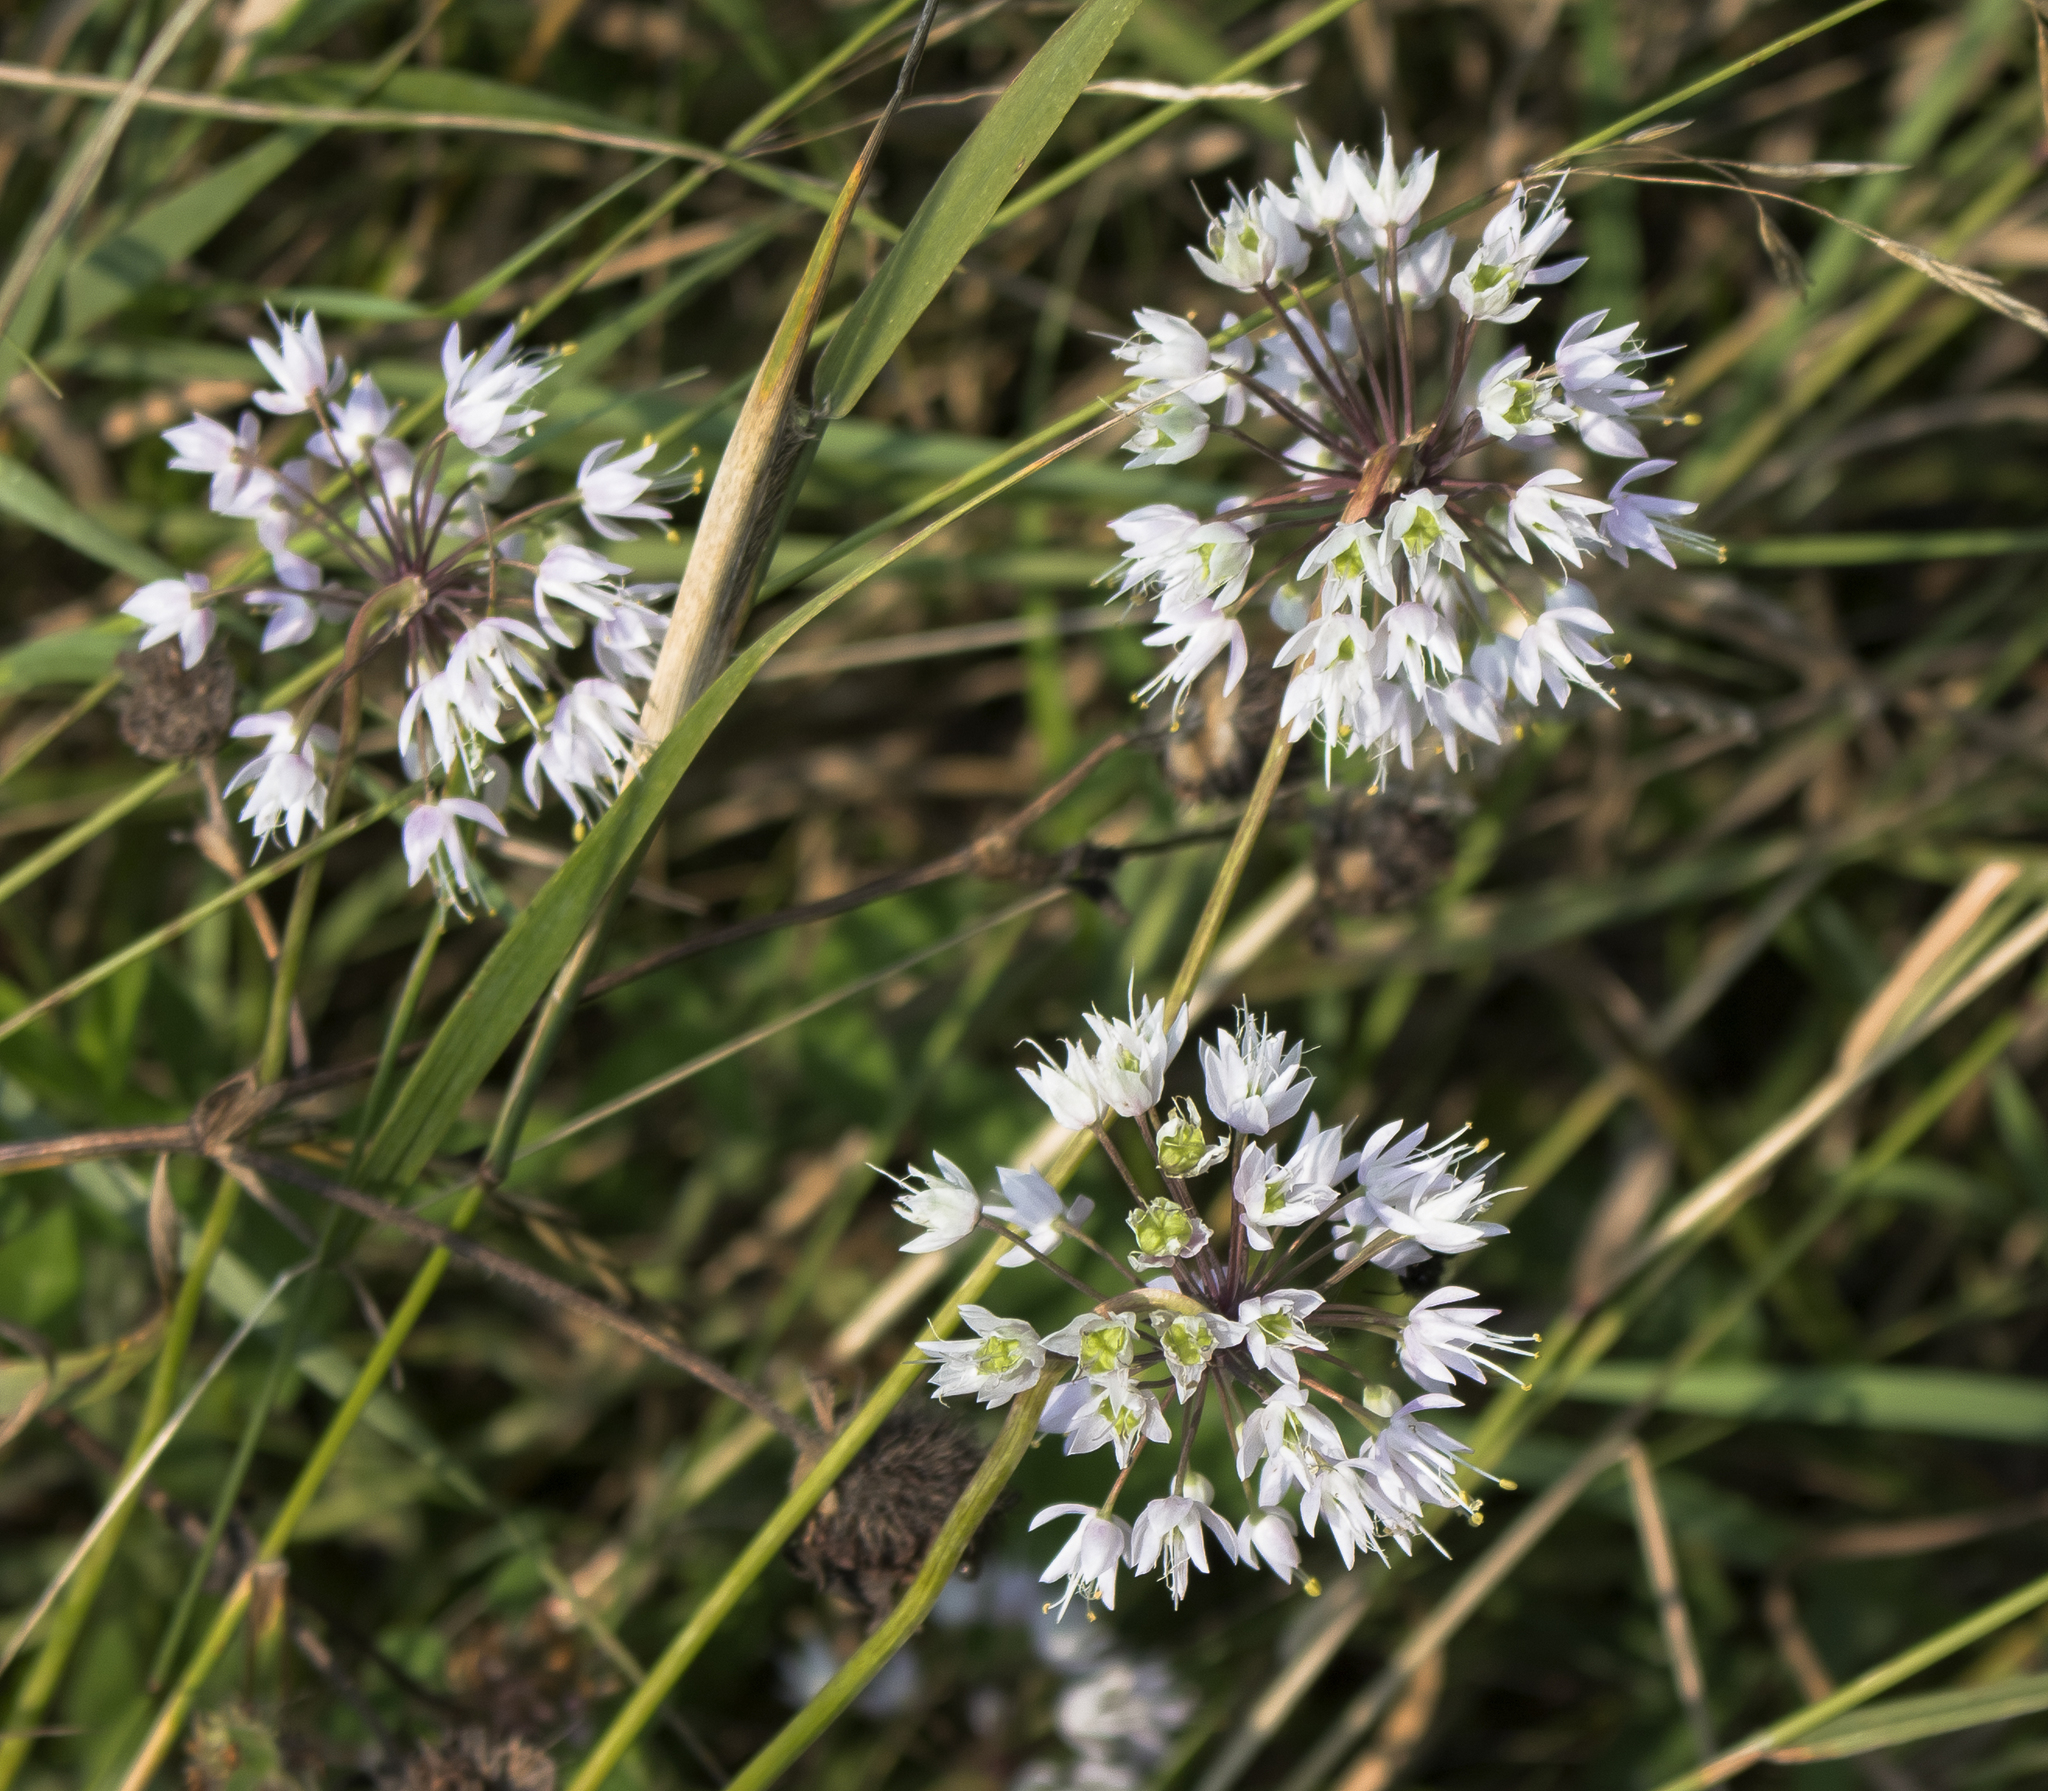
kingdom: Plantae
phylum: Tracheophyta
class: Liliopsida
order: Asparagales
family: Amaryllidaceae
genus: Allium
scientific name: Allium cernuum
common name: Nodding onion
